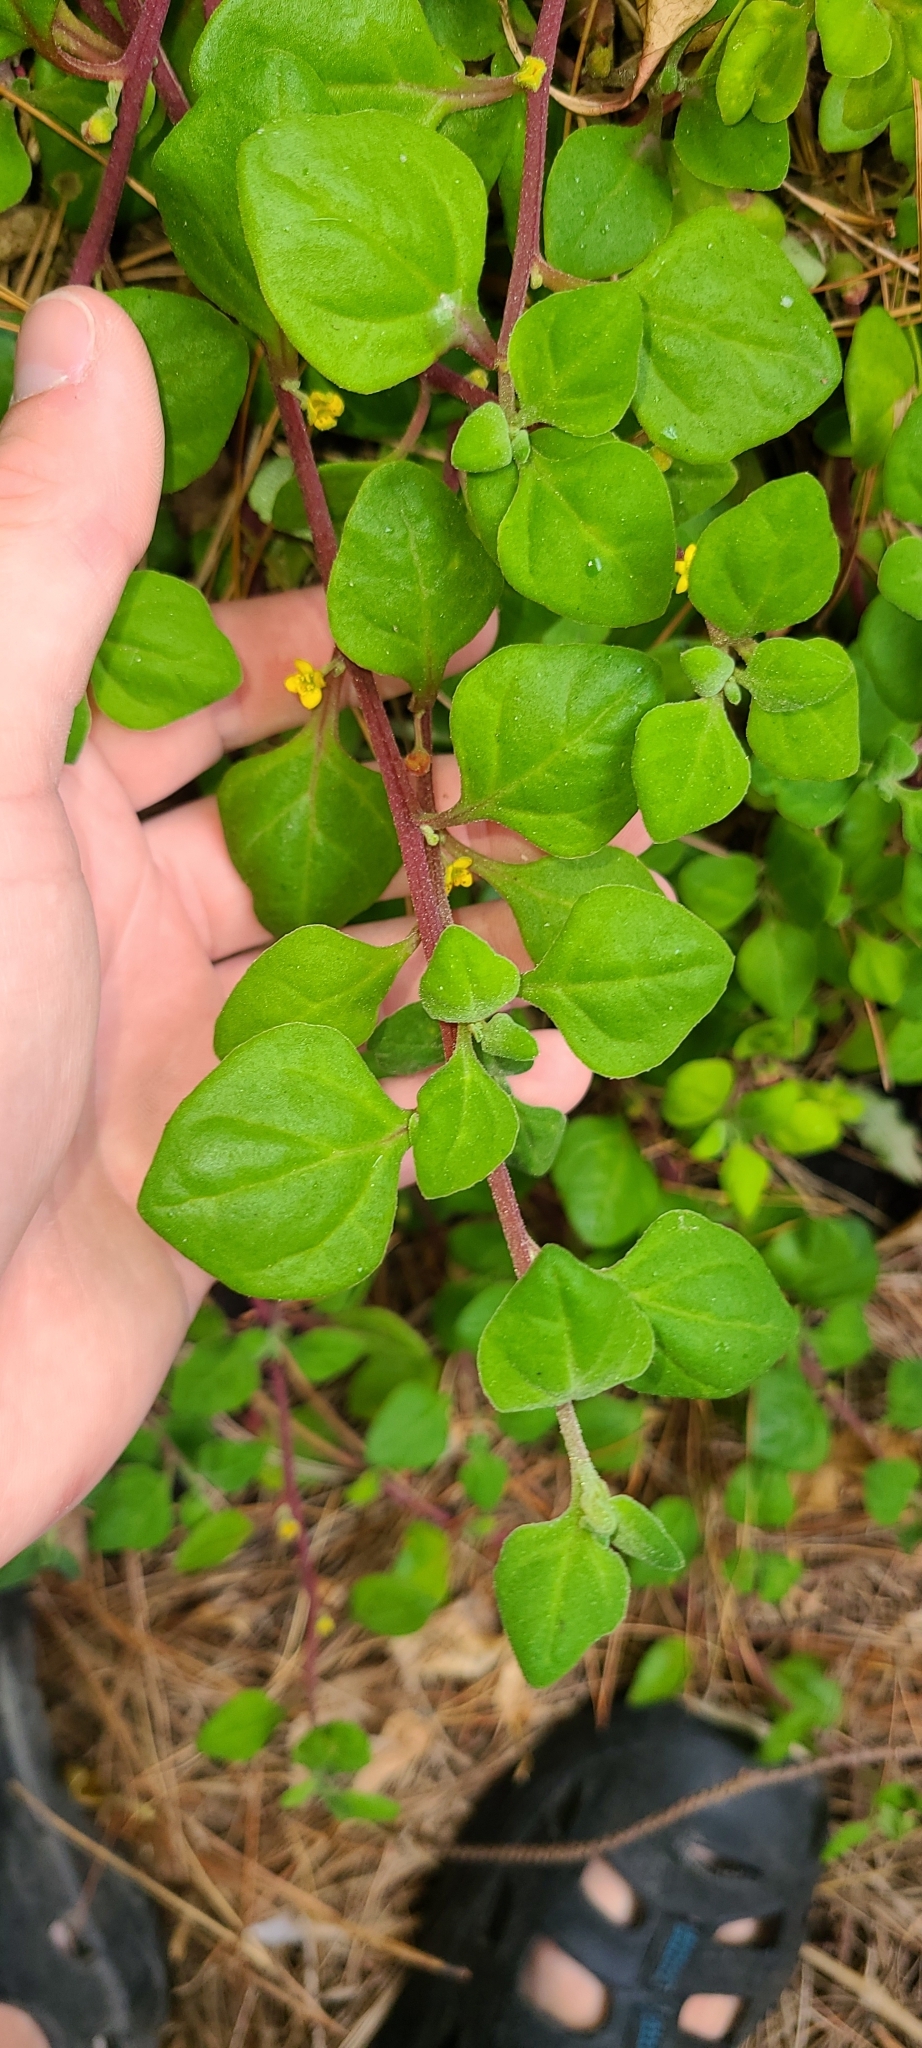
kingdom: Plantae
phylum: Tracheophyta
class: Magnoliopsida
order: Caryophyllales
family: Aizoaceae
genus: Tetragonia
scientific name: Tetragonia implexicoma
